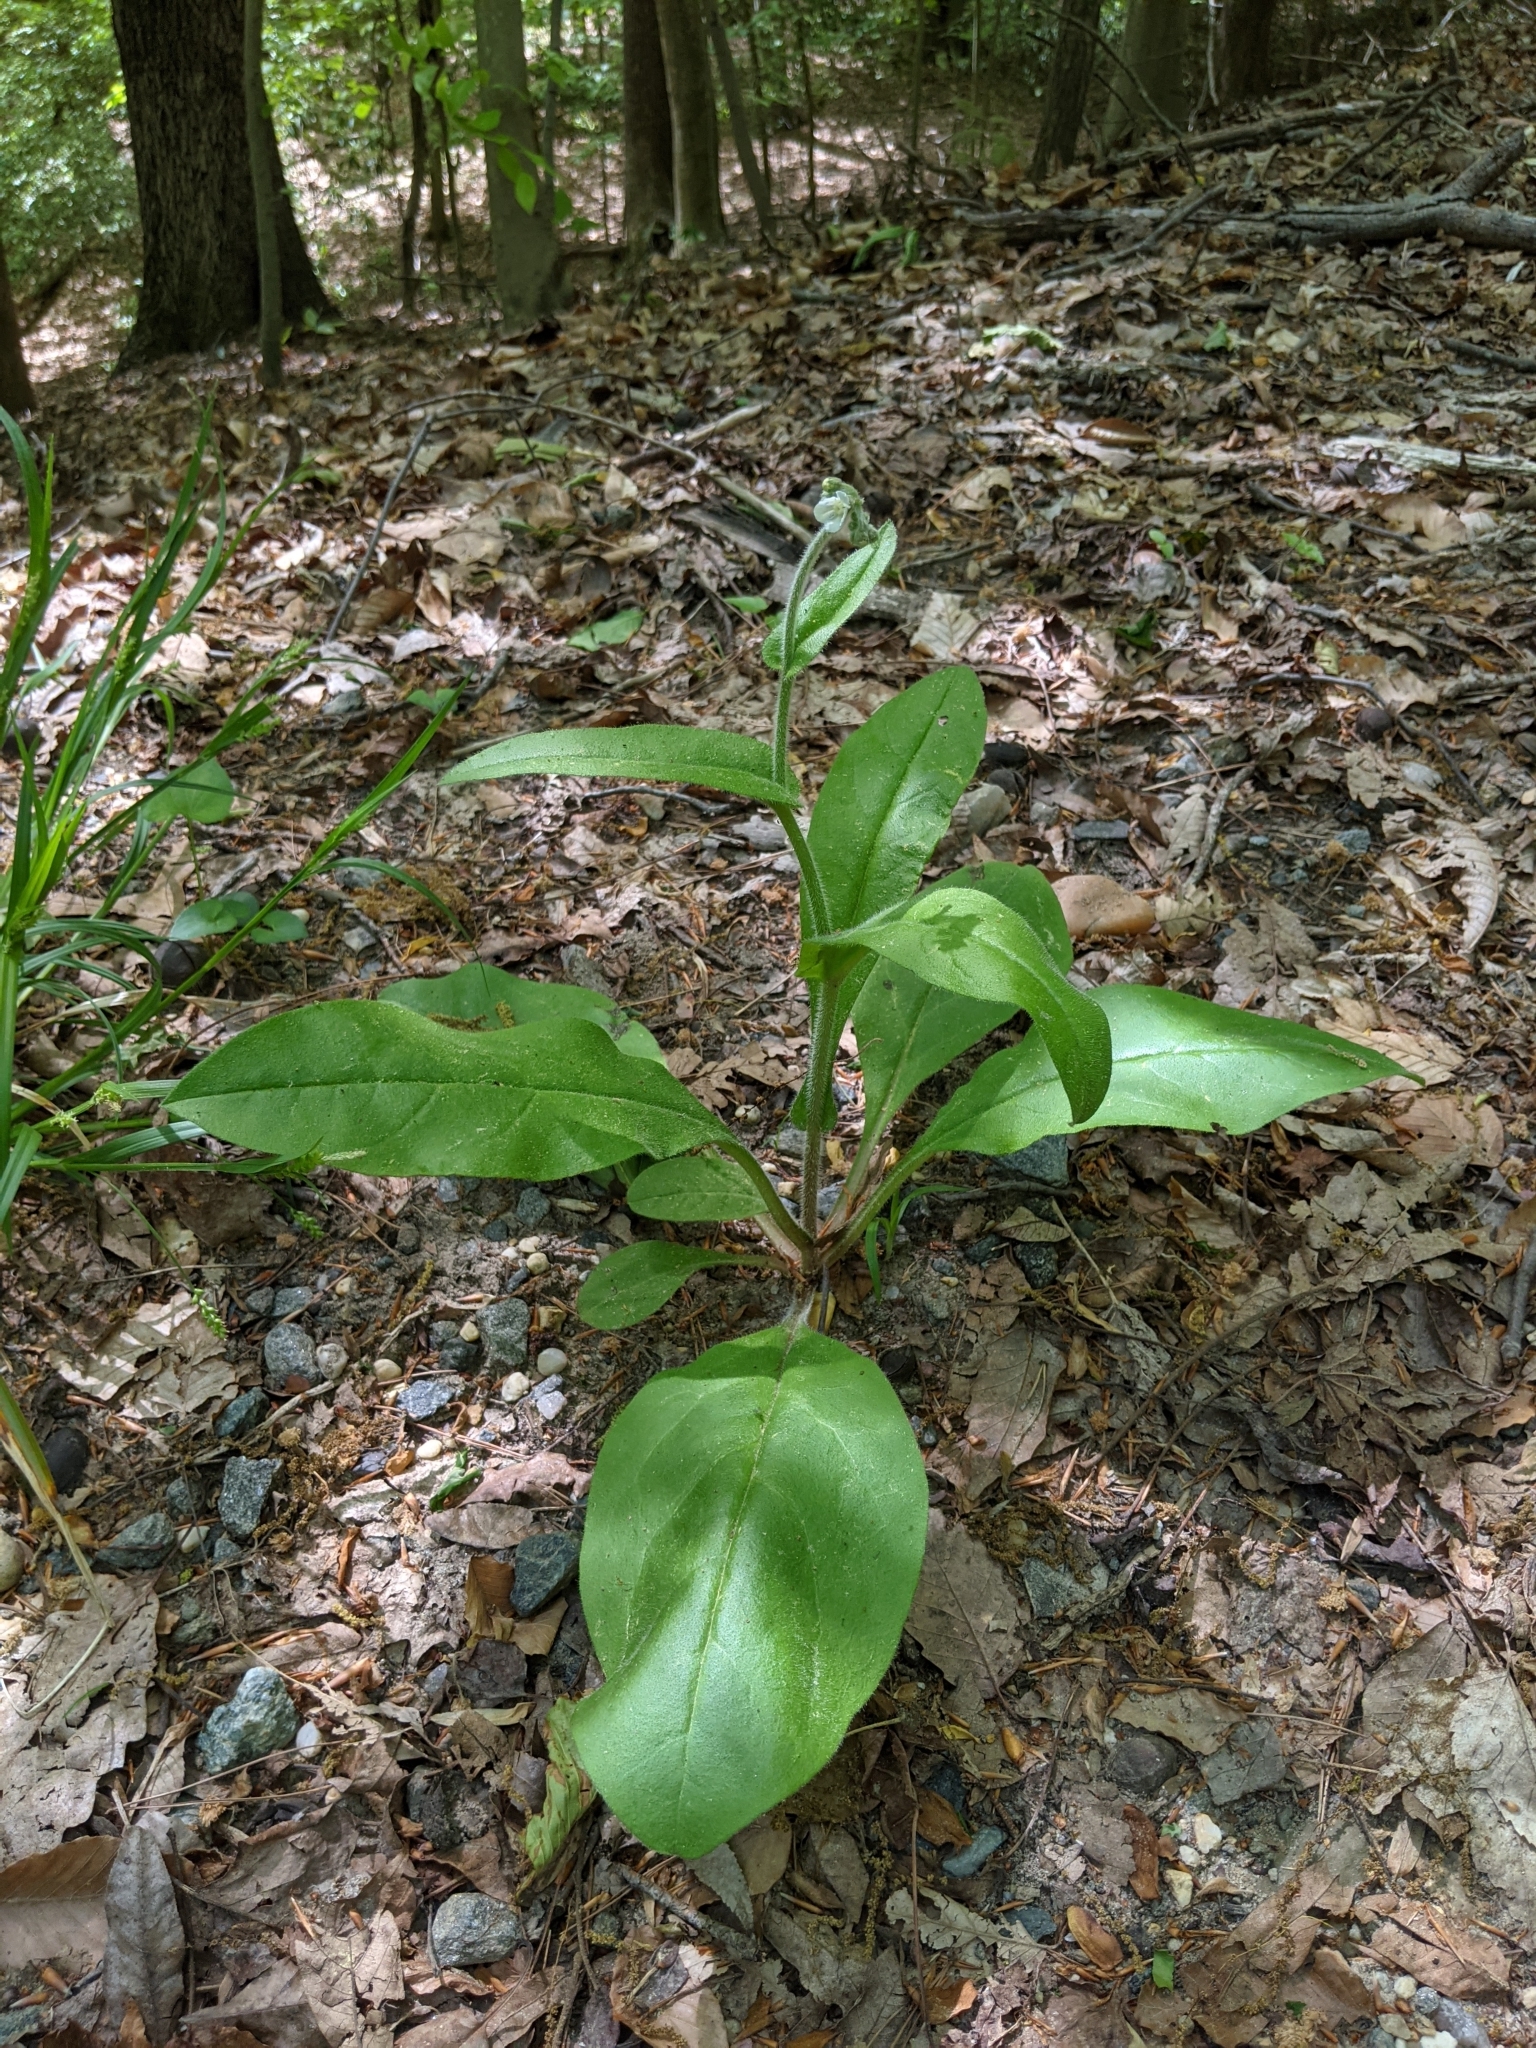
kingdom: Plantae
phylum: Tracheophyta
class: Magnoliopsida
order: Boraginales
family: Boraginaceae
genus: Andersonglossum
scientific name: Andersonglossum virginianum
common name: Wild comfrey
